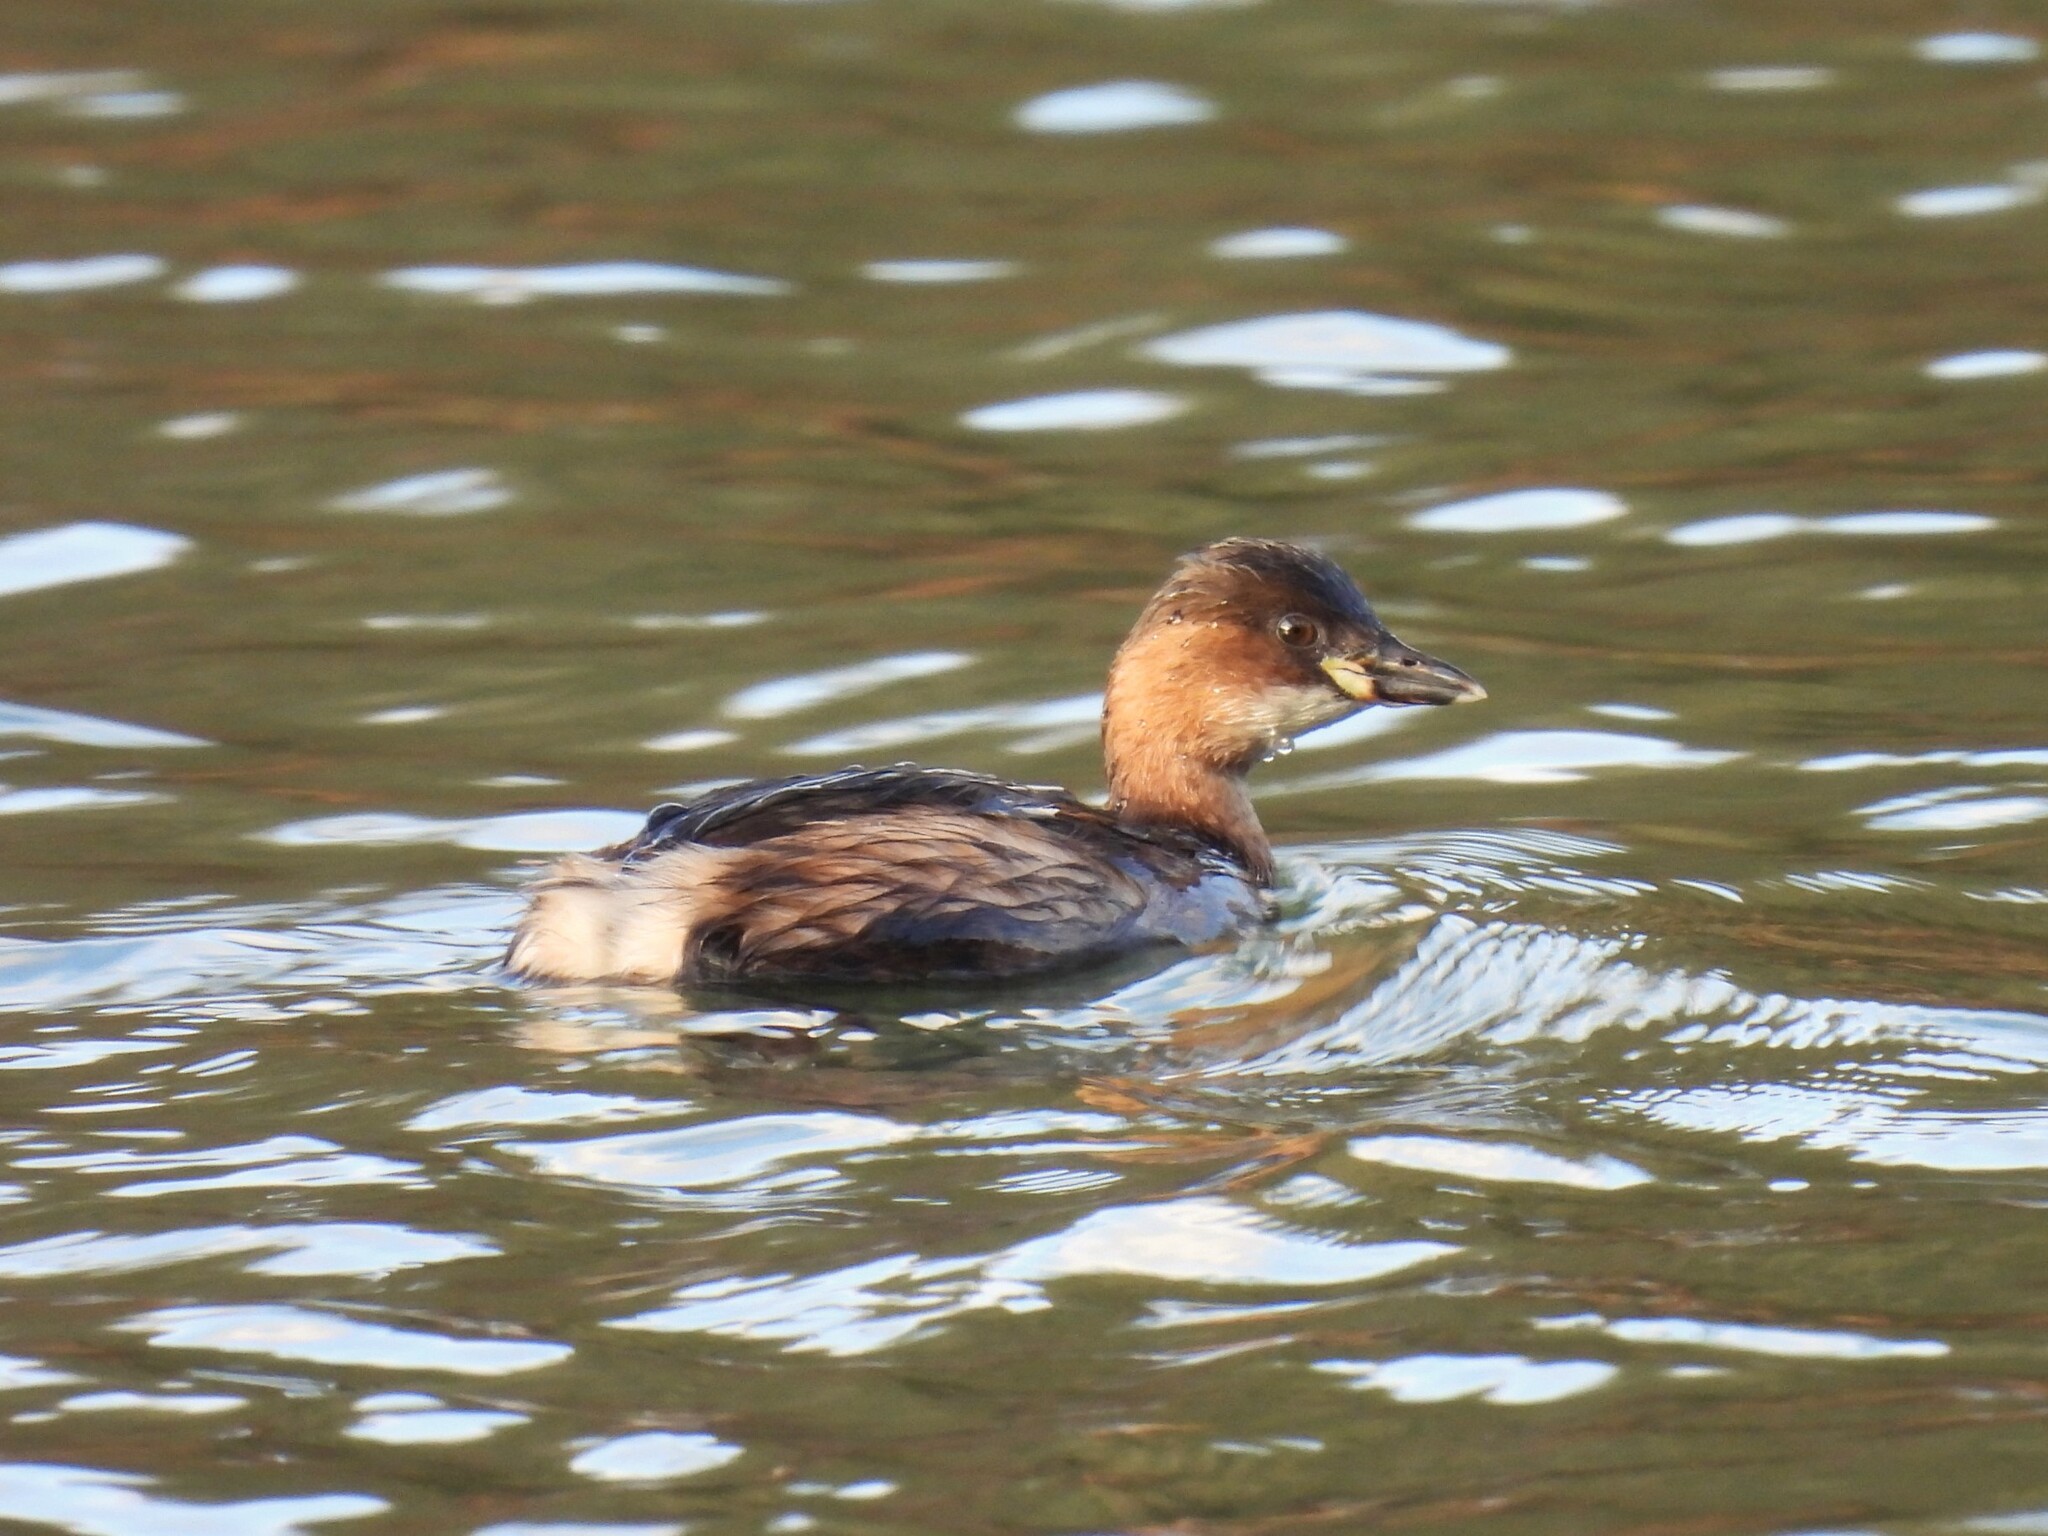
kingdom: Animalia
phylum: Chordata
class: Aves
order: Podicipediformes
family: Podicipedidae
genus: Tachybaptus
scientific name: Tachybaptus ruficollis
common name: Little grebe
